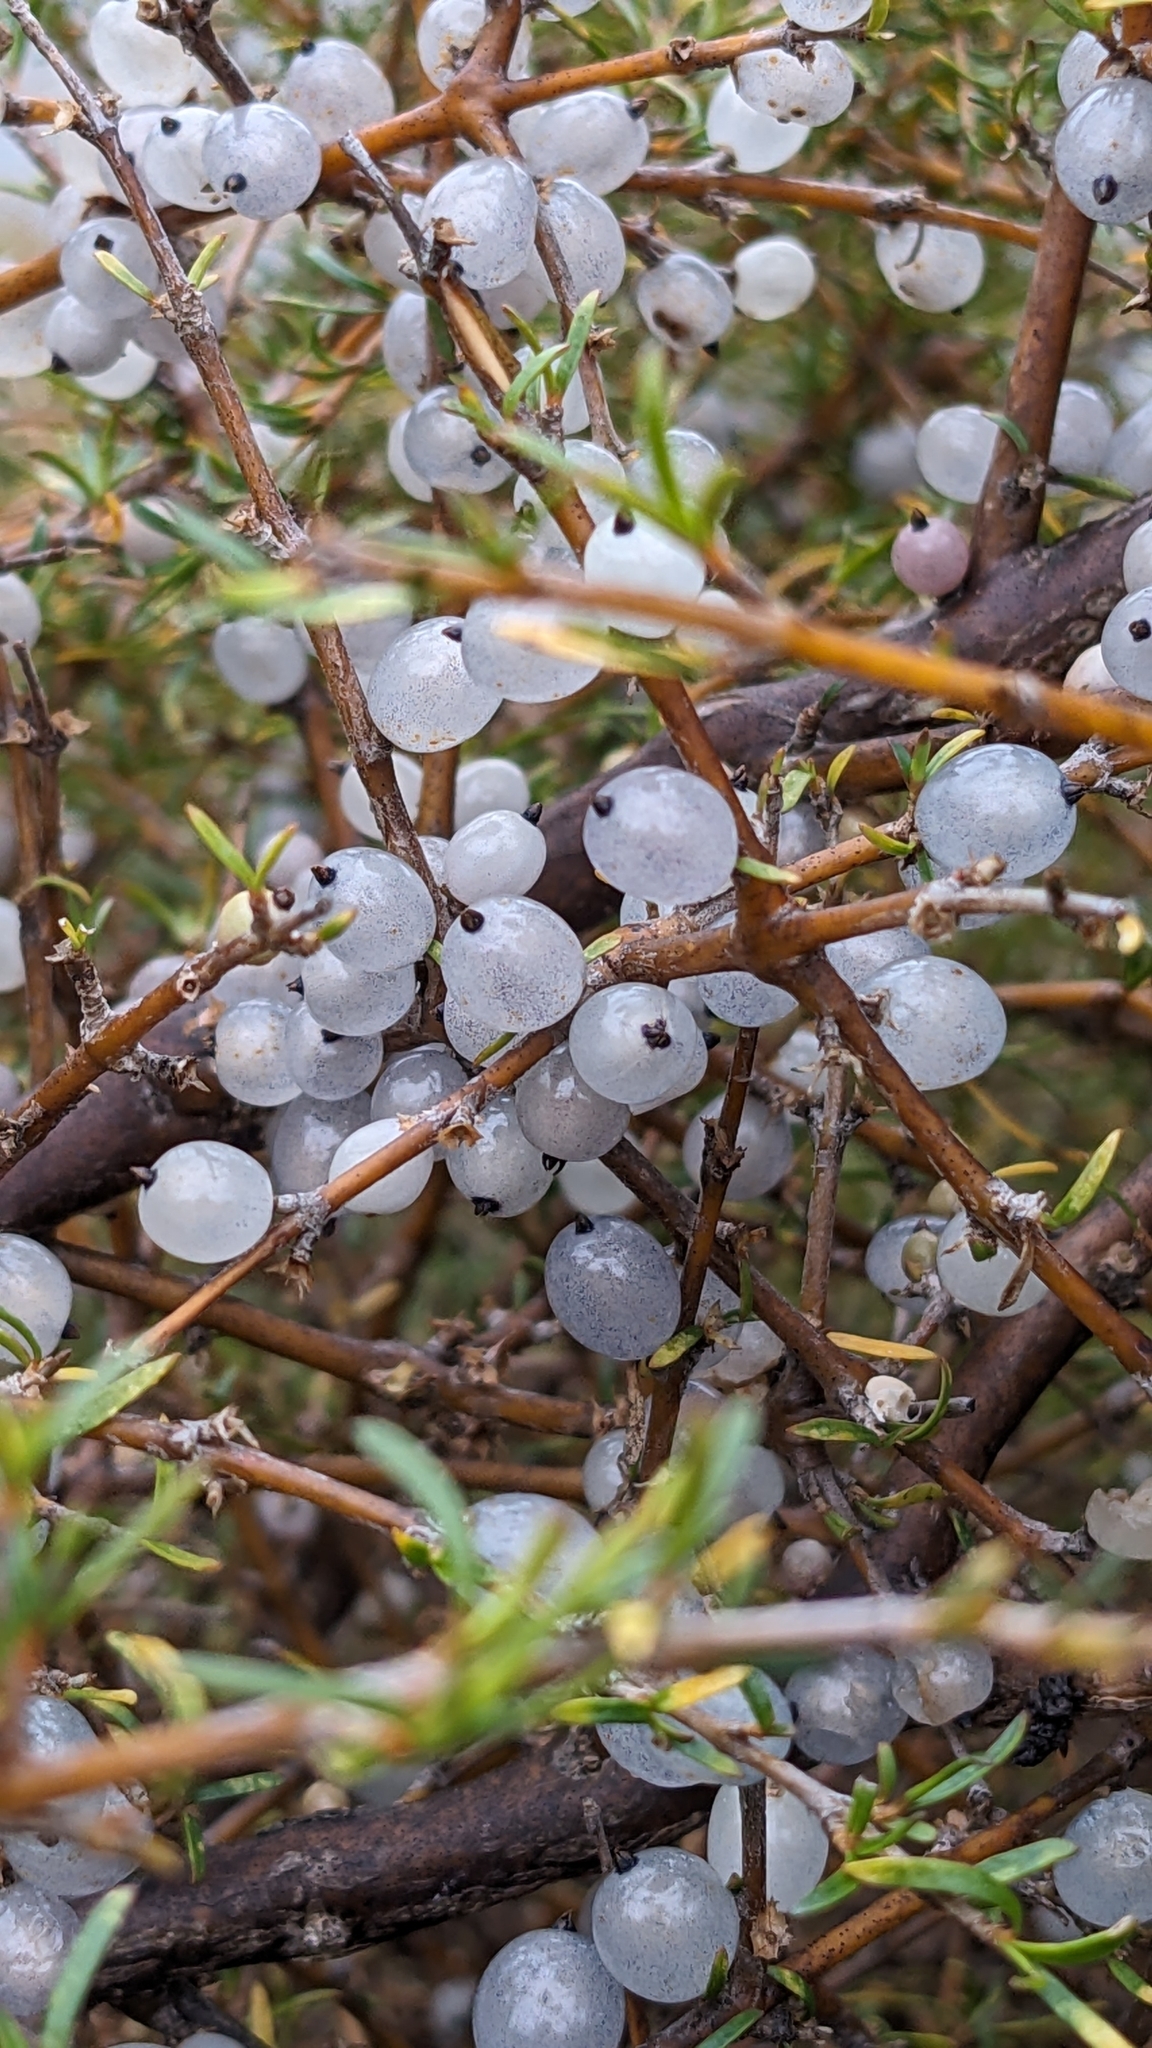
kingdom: Plantae
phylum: Tracheophyta
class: Magnoliopsida
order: Gentianales
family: Rubiaceae
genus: Coprosma
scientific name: Coprosma rugosa
